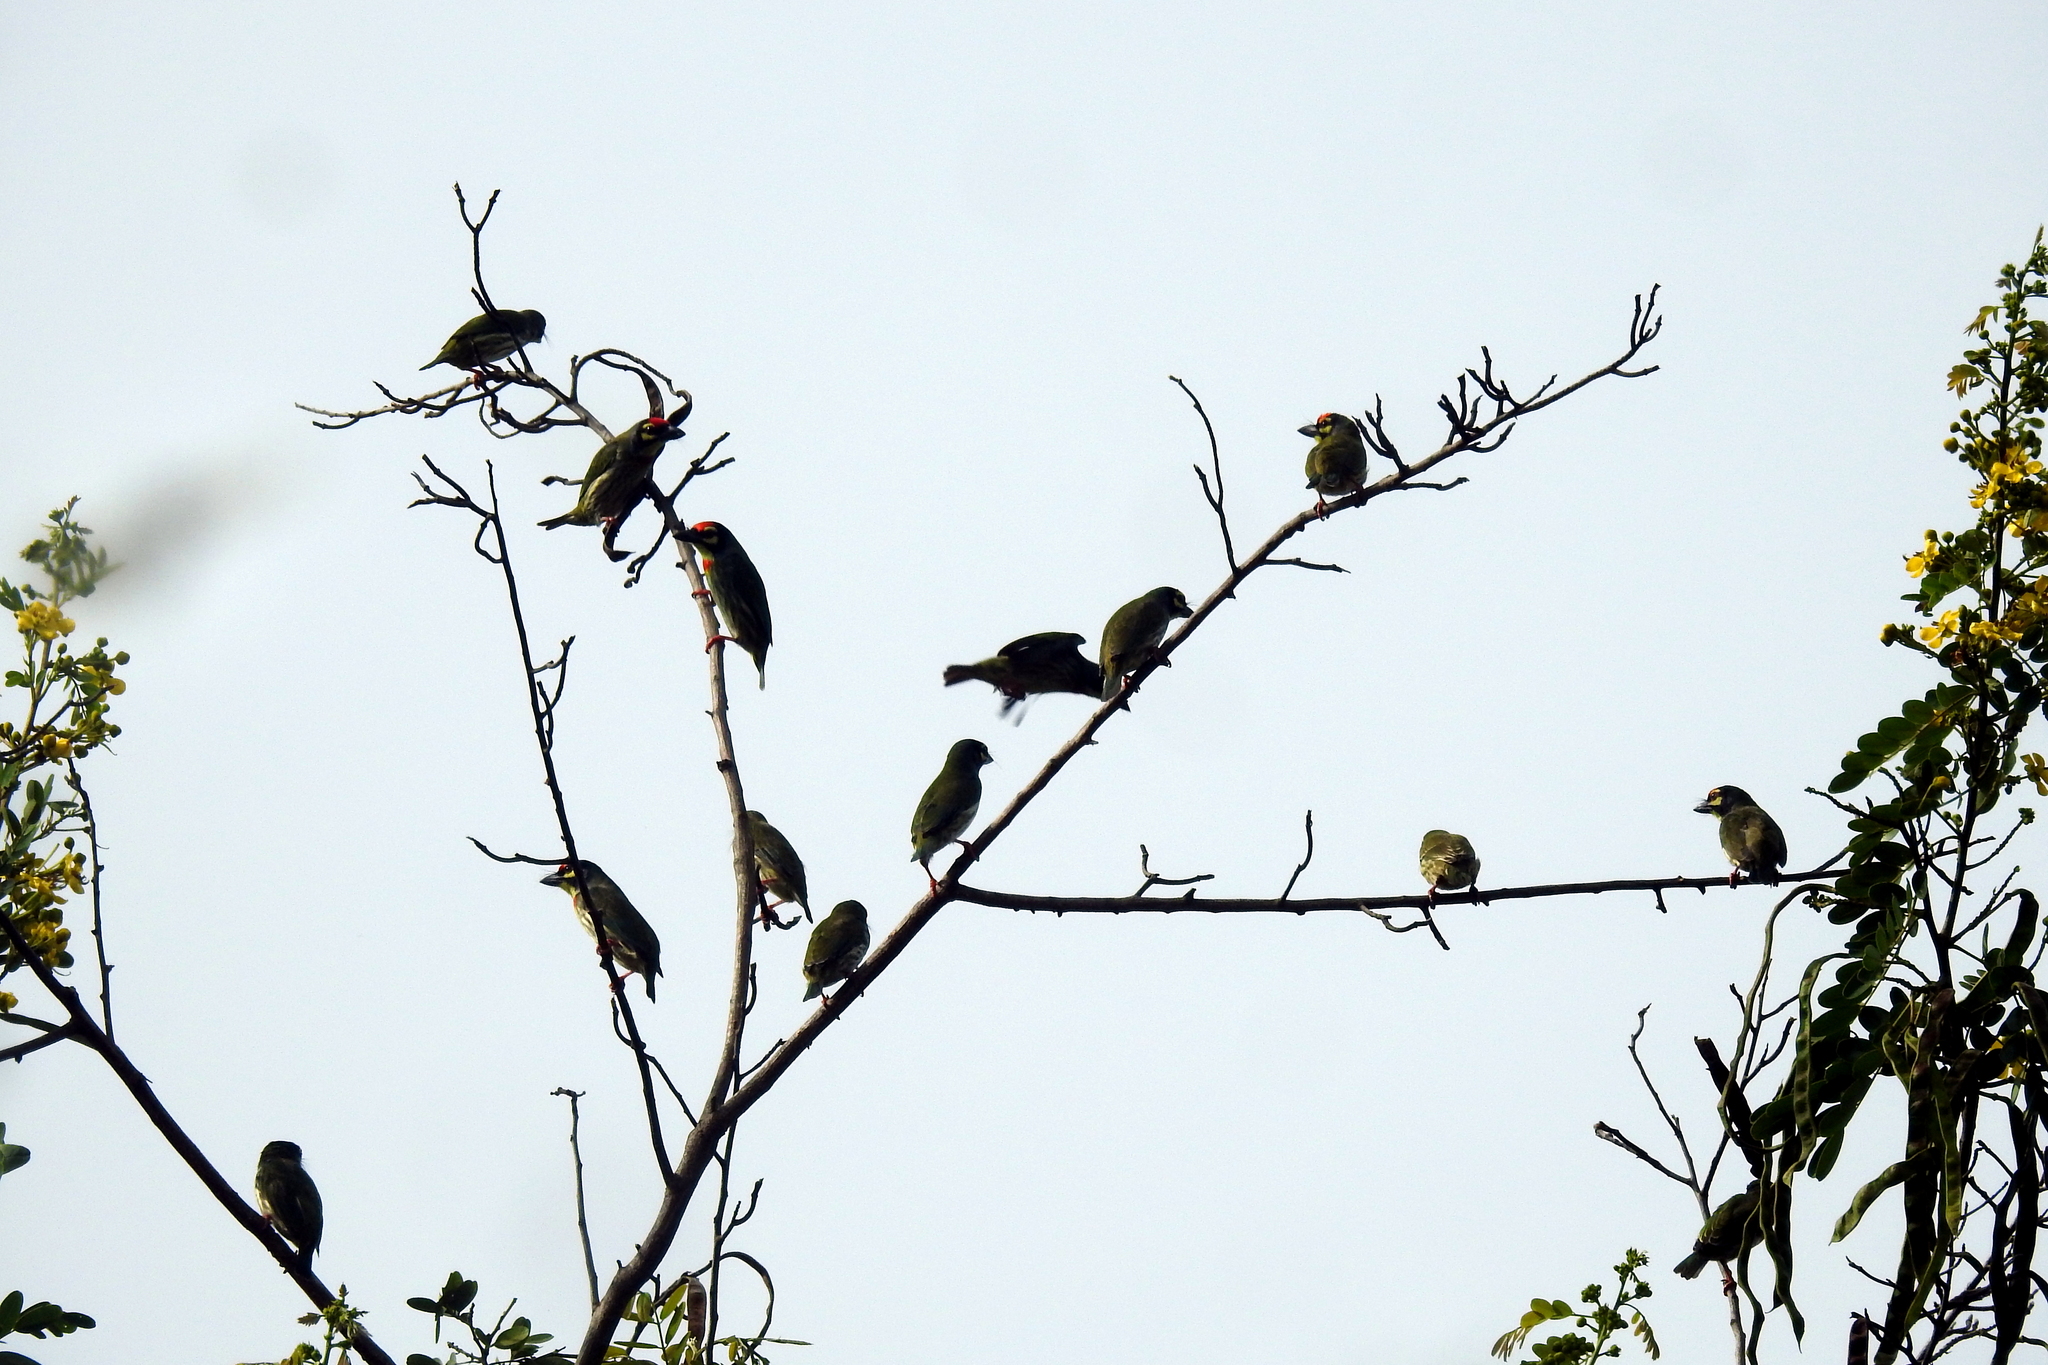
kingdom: Animalia
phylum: Chordata
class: Aves
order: Piciformes
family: Megalaimidae
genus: Psilopogon
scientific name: Psilopogon haemacephalus
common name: Coppersmith barbet
